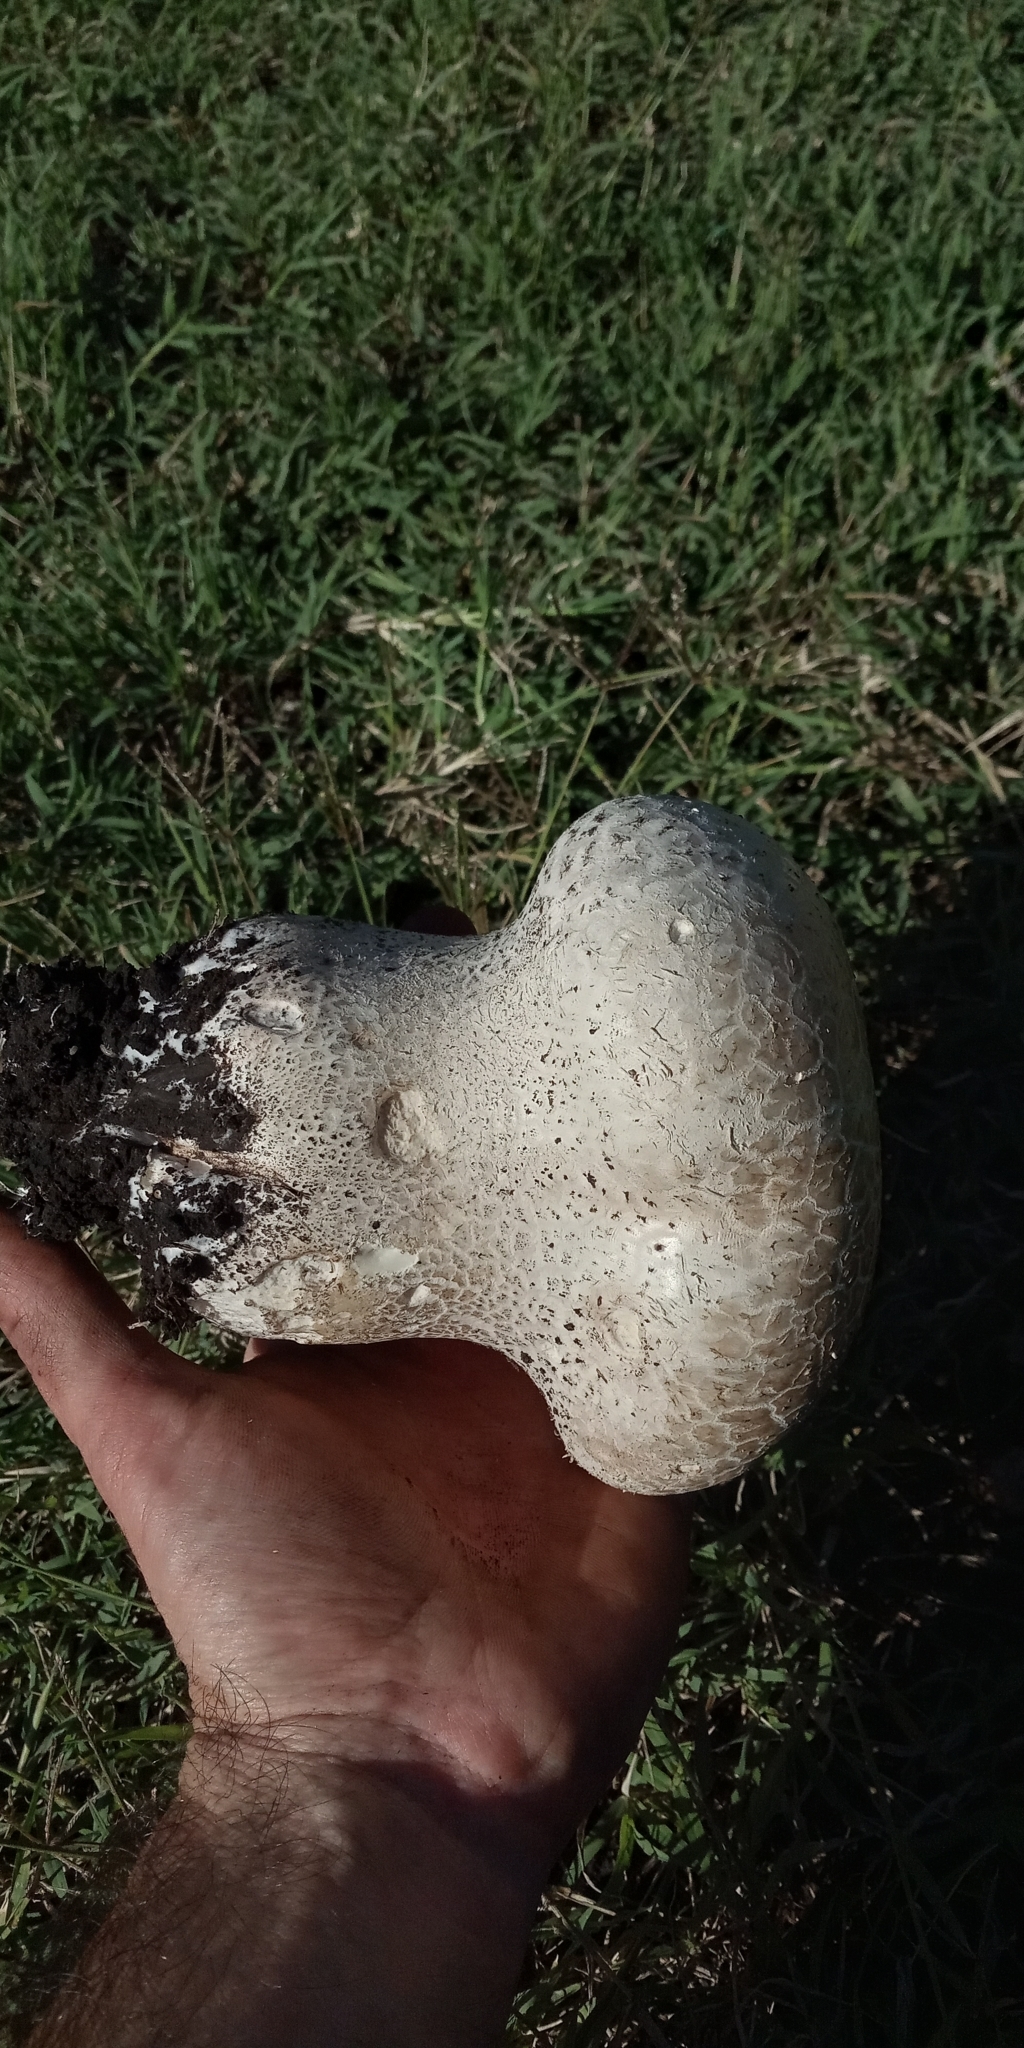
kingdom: Fungi
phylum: Basidiomycota
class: Agaricomycetes
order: Agaricales
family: Lycoperdaceae
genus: Calvatia
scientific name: Calvatia cyathiformis
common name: Purple-spored puffball
